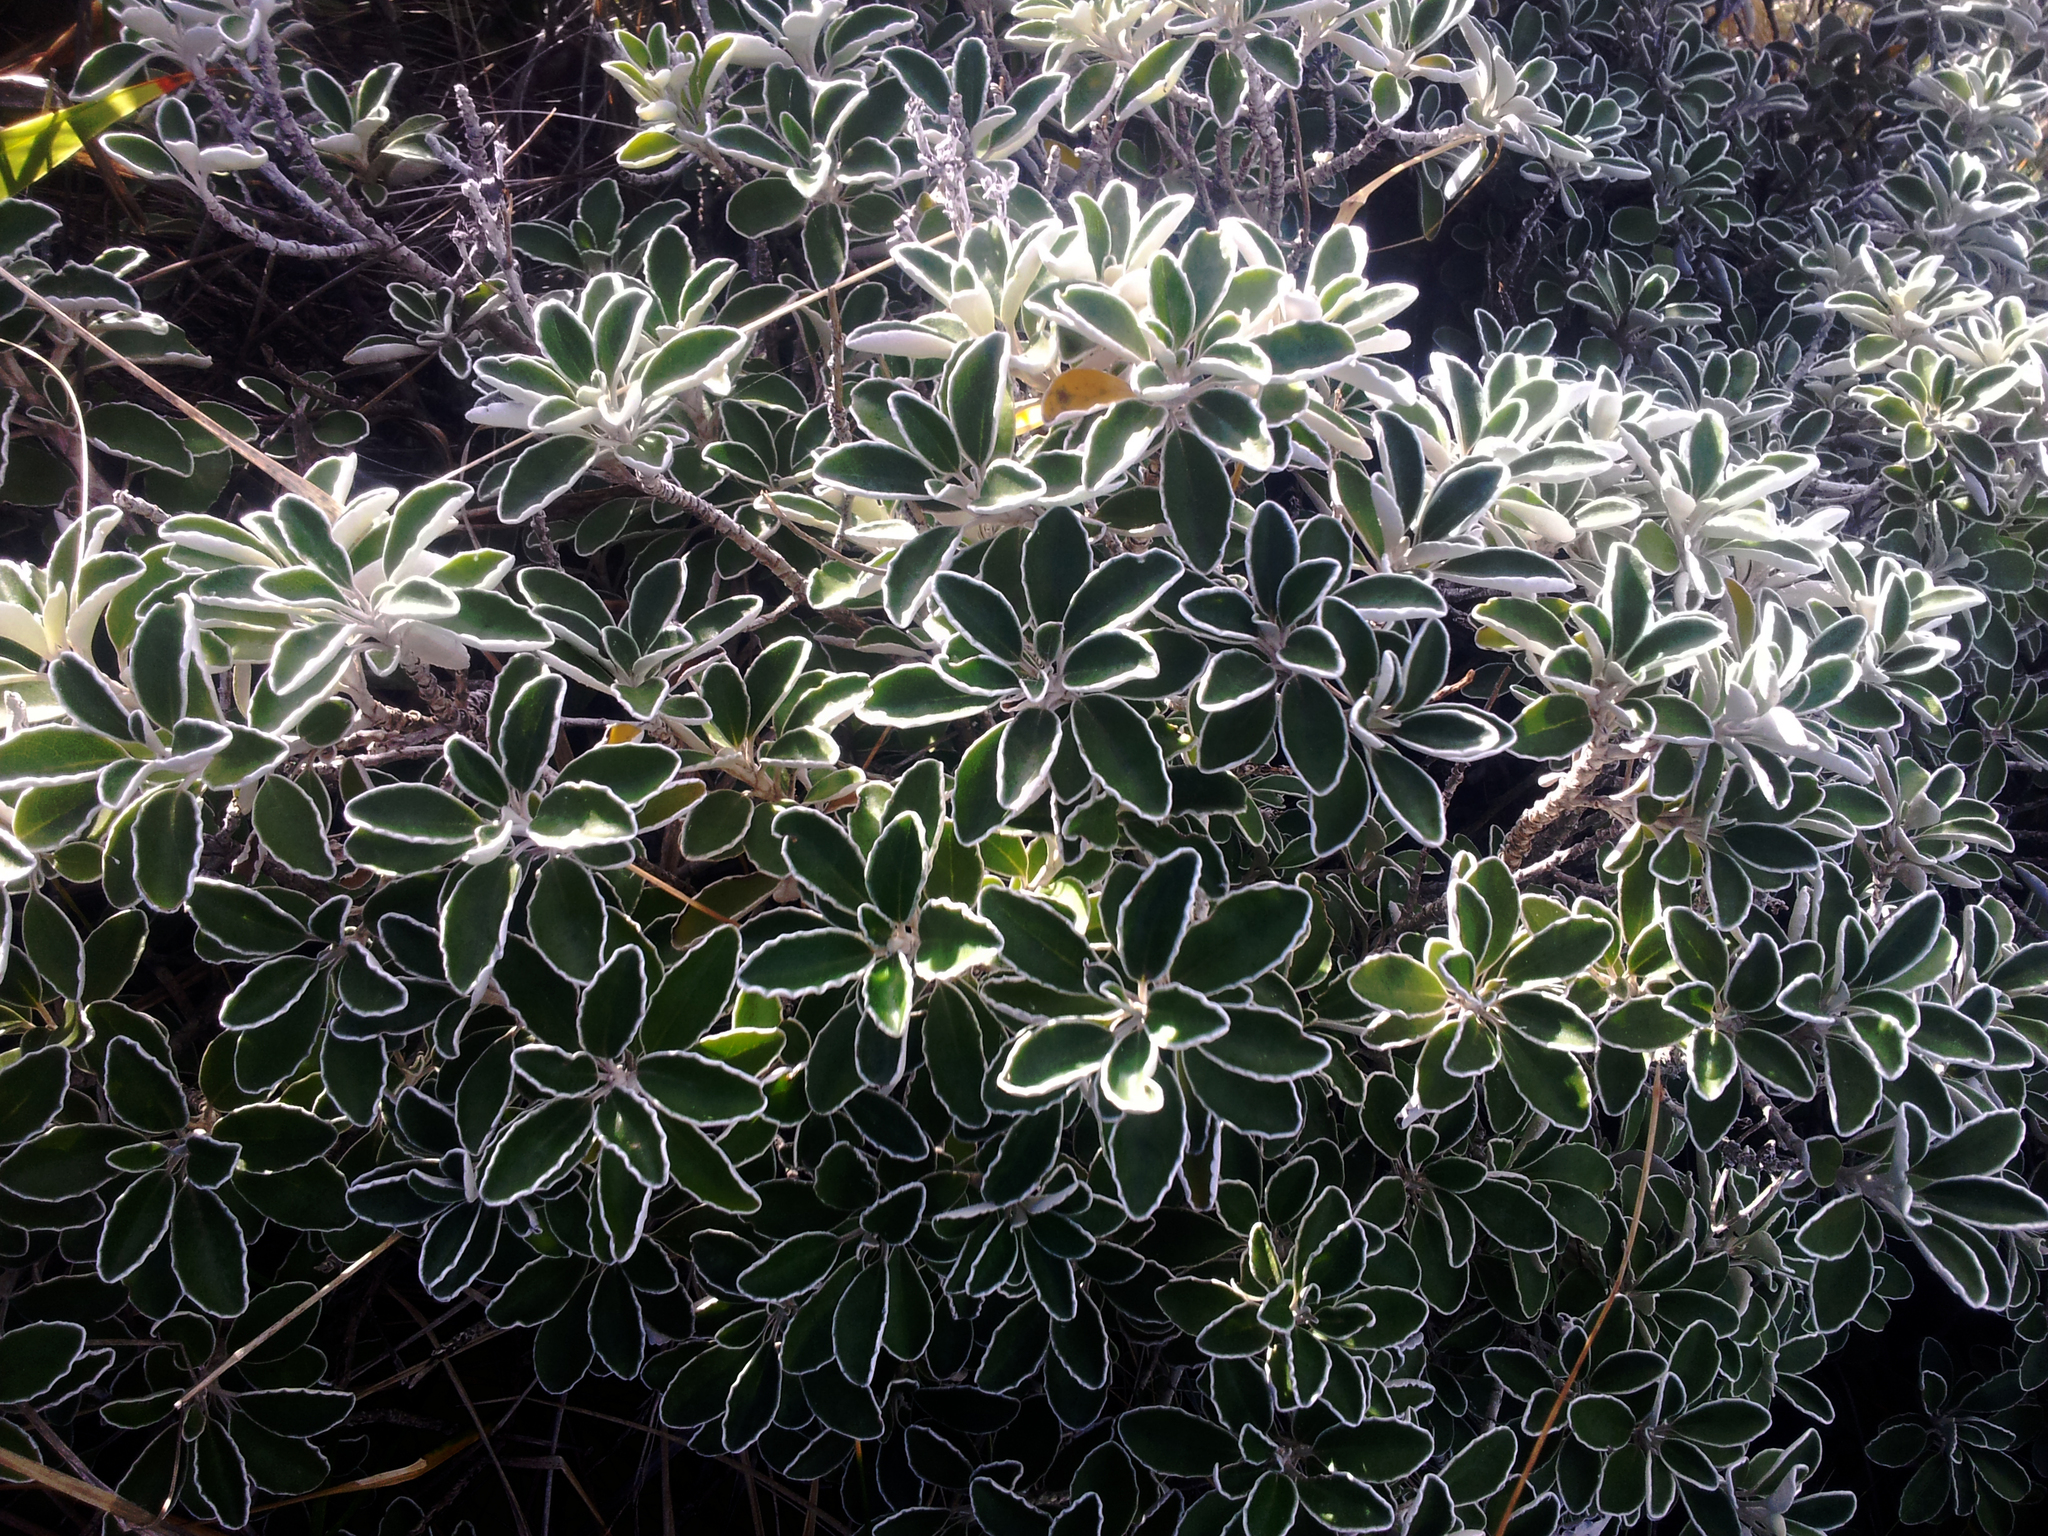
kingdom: Plantae
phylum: Tracheophyta
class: Magnoliopsida
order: Asterales
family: Asteraceae
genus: Brachyglottis
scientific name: Brachyglottis compacta
